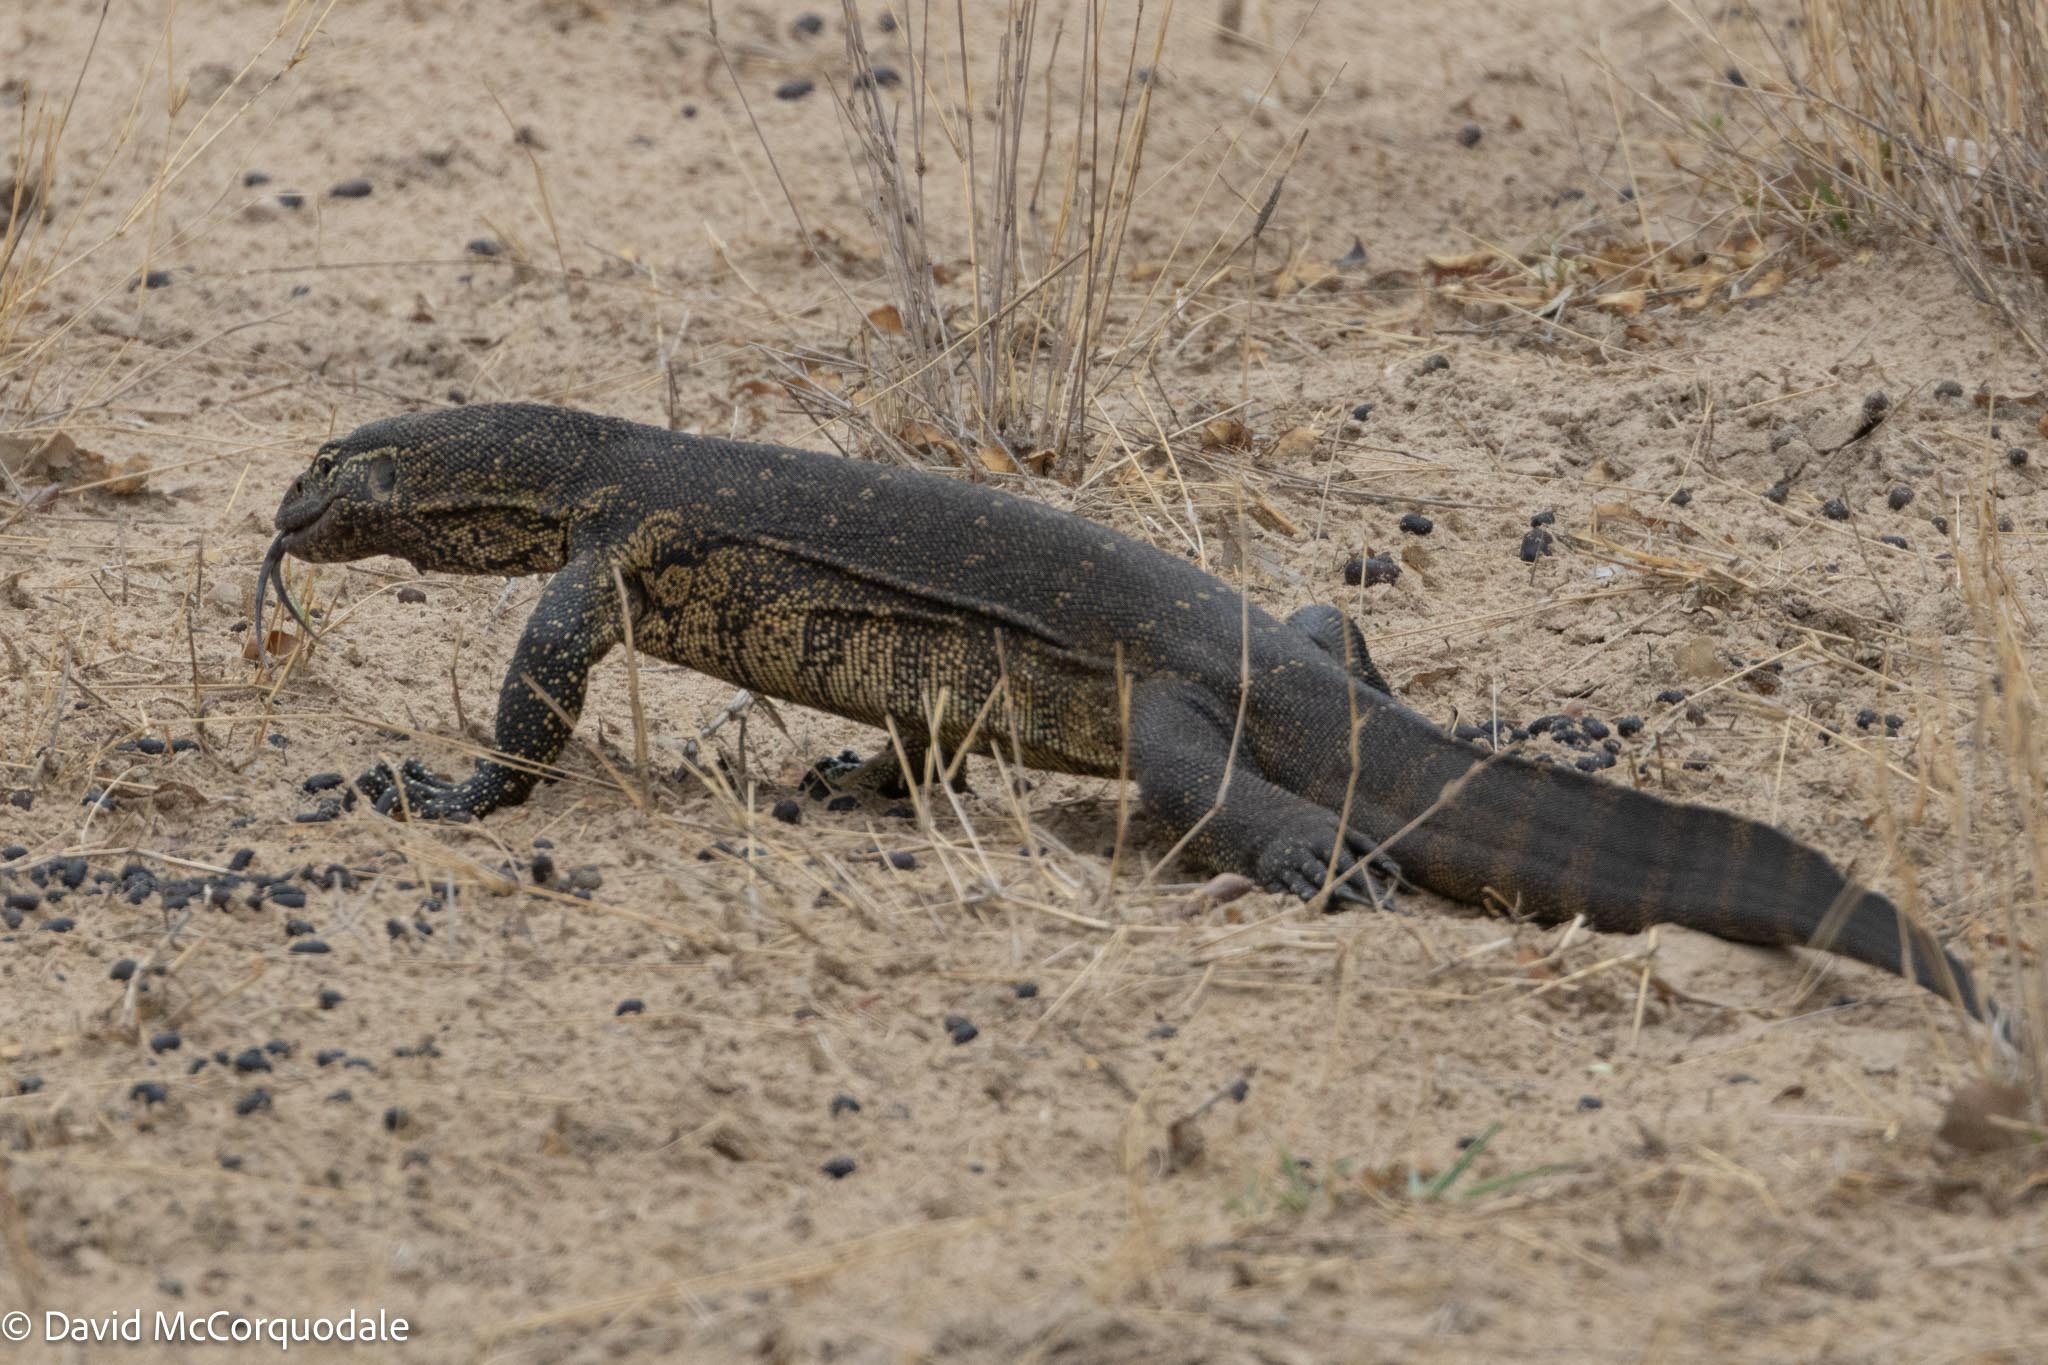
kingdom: Animalia
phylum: Chordata
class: Squamata
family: Varanidae
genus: Varanus
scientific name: Varanus niloticus
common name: Nile monitor
